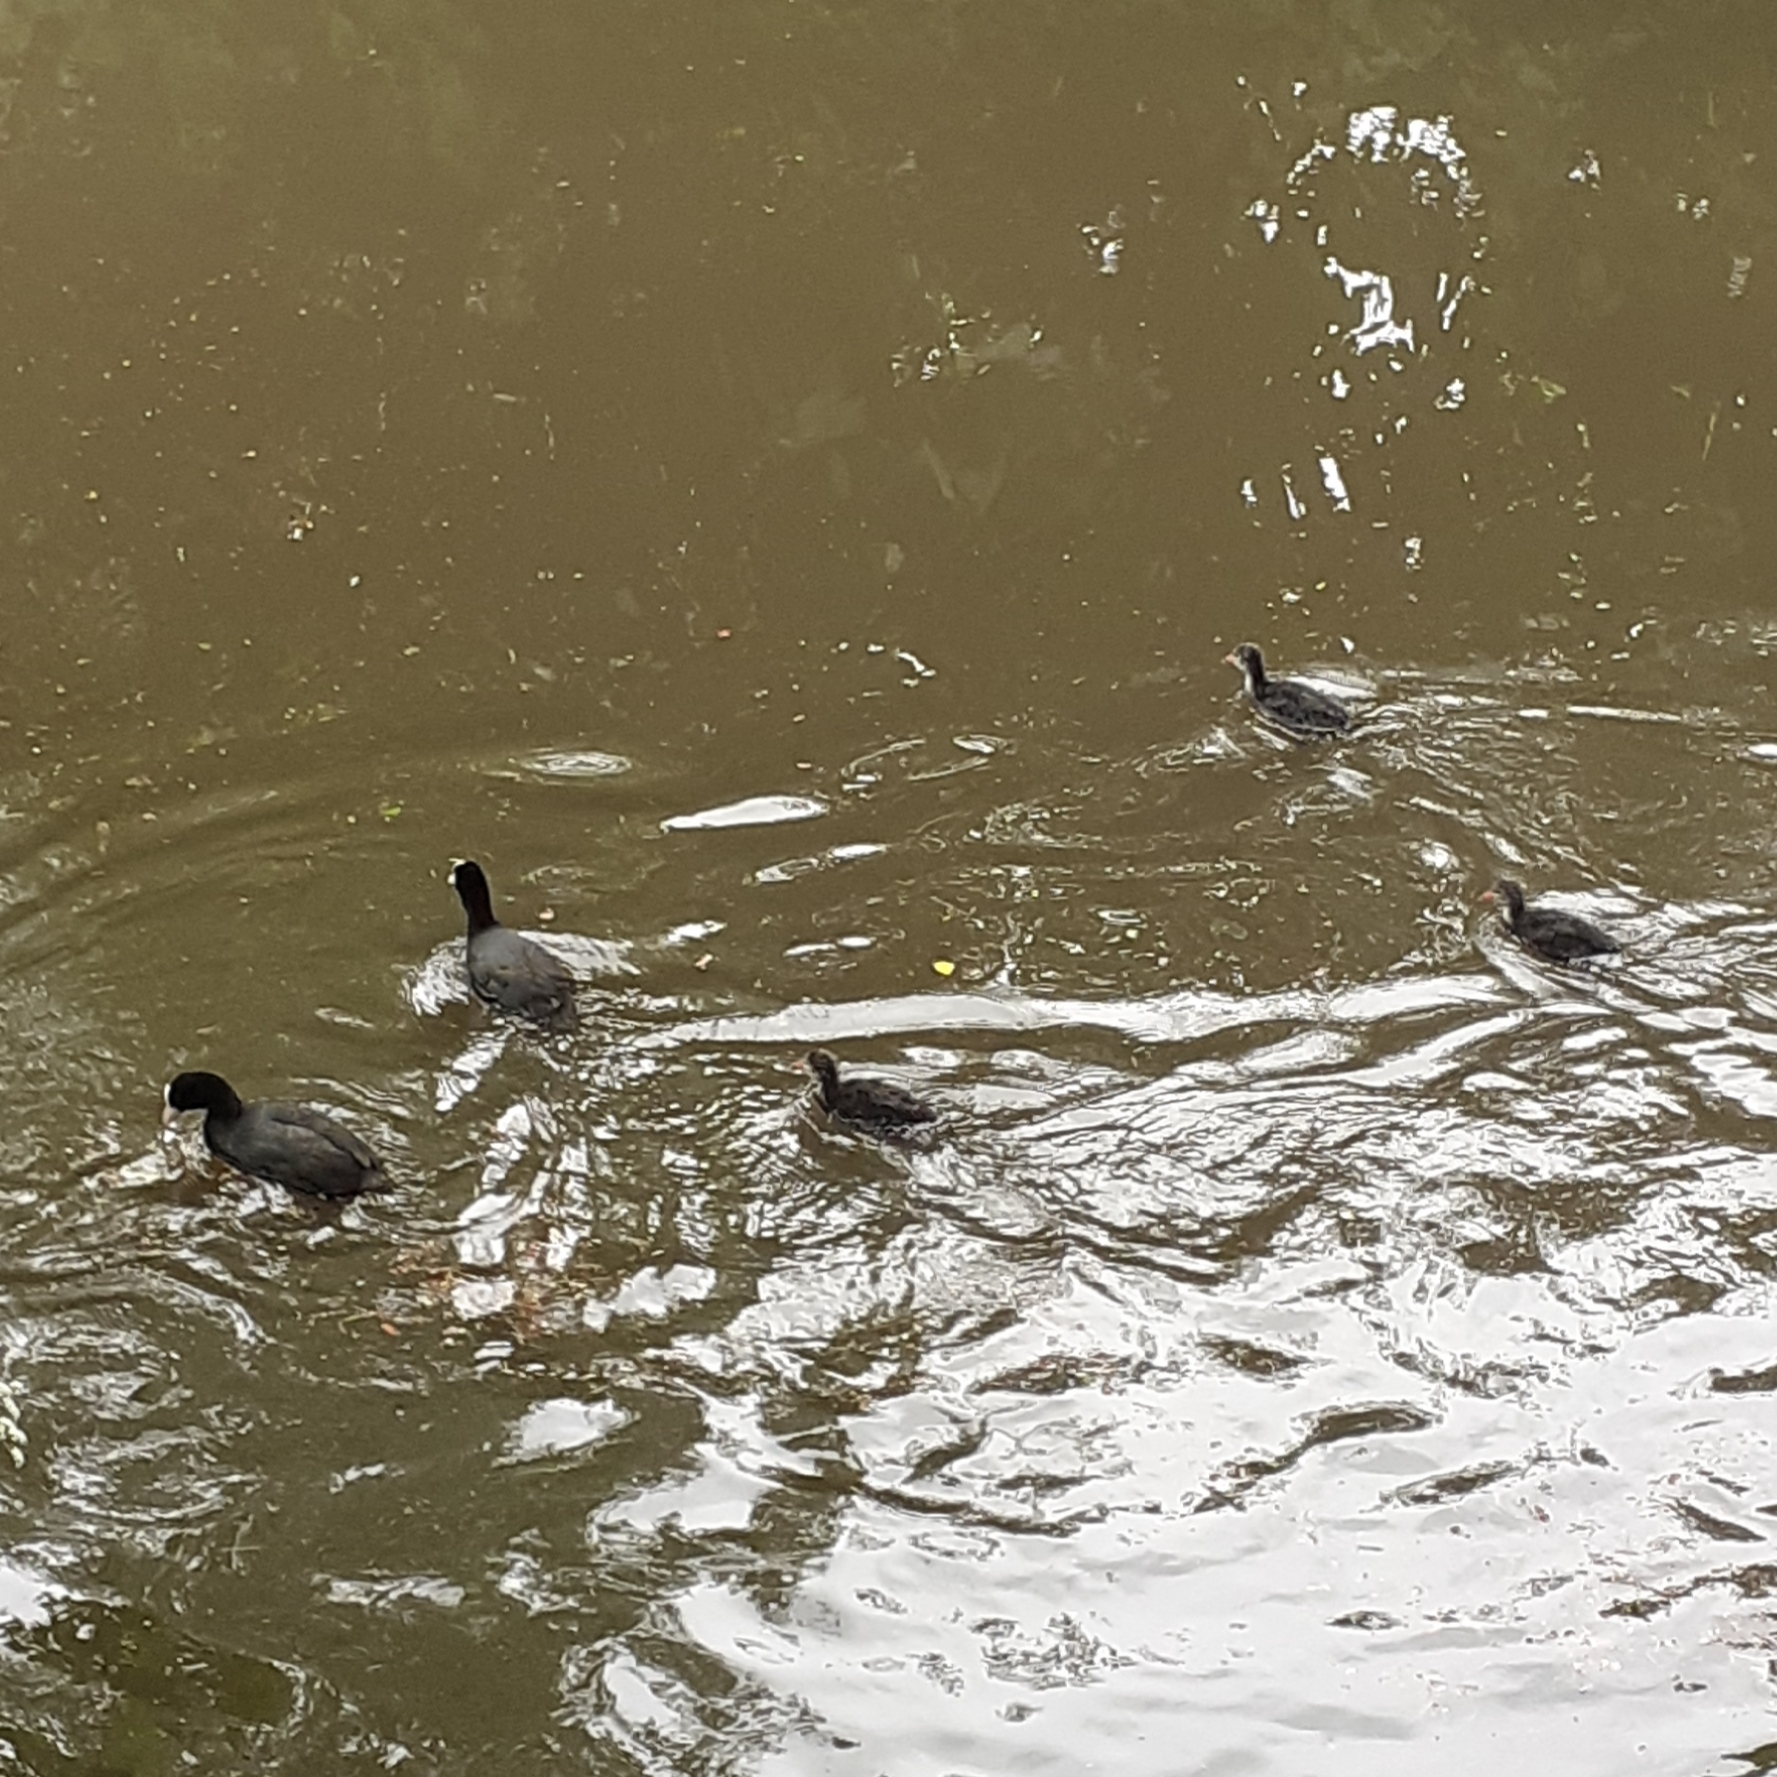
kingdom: Animalia
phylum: Chordata
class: Aves
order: Gruiformes
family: Rallidae
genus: Fulica
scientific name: Fulica atra
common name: Eurasian coot
